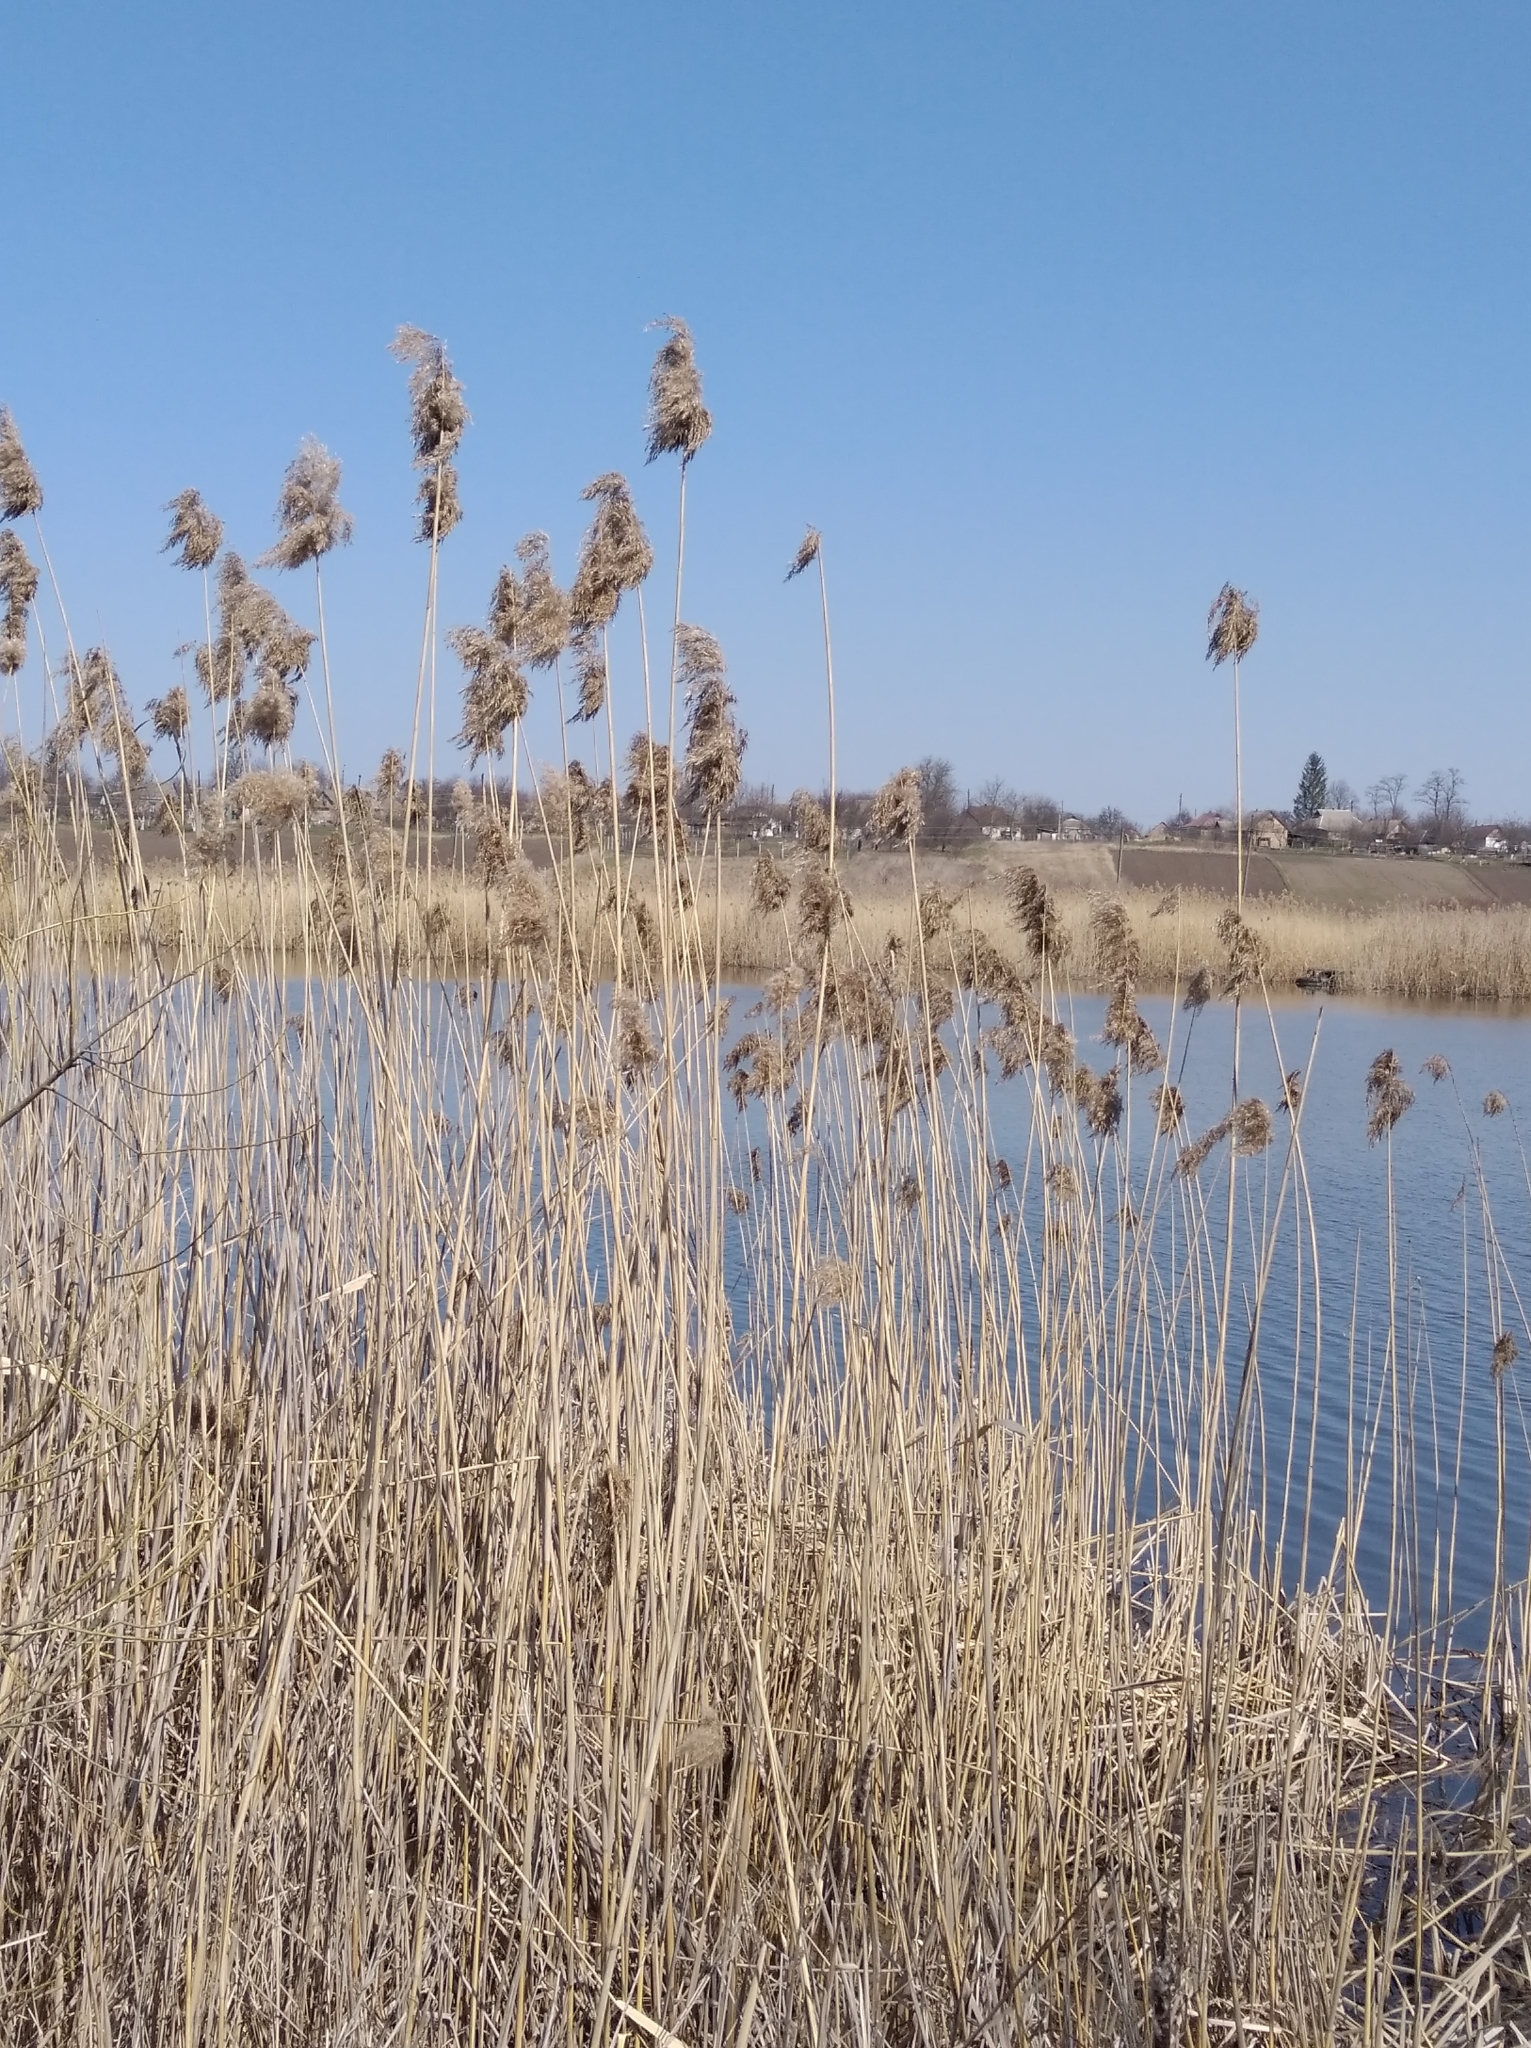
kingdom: Plantae
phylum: Tracheophyta
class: Liliopsida
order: Poales
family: Poaceae
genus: Phragmites
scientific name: Phragmites australis
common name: Common reed
